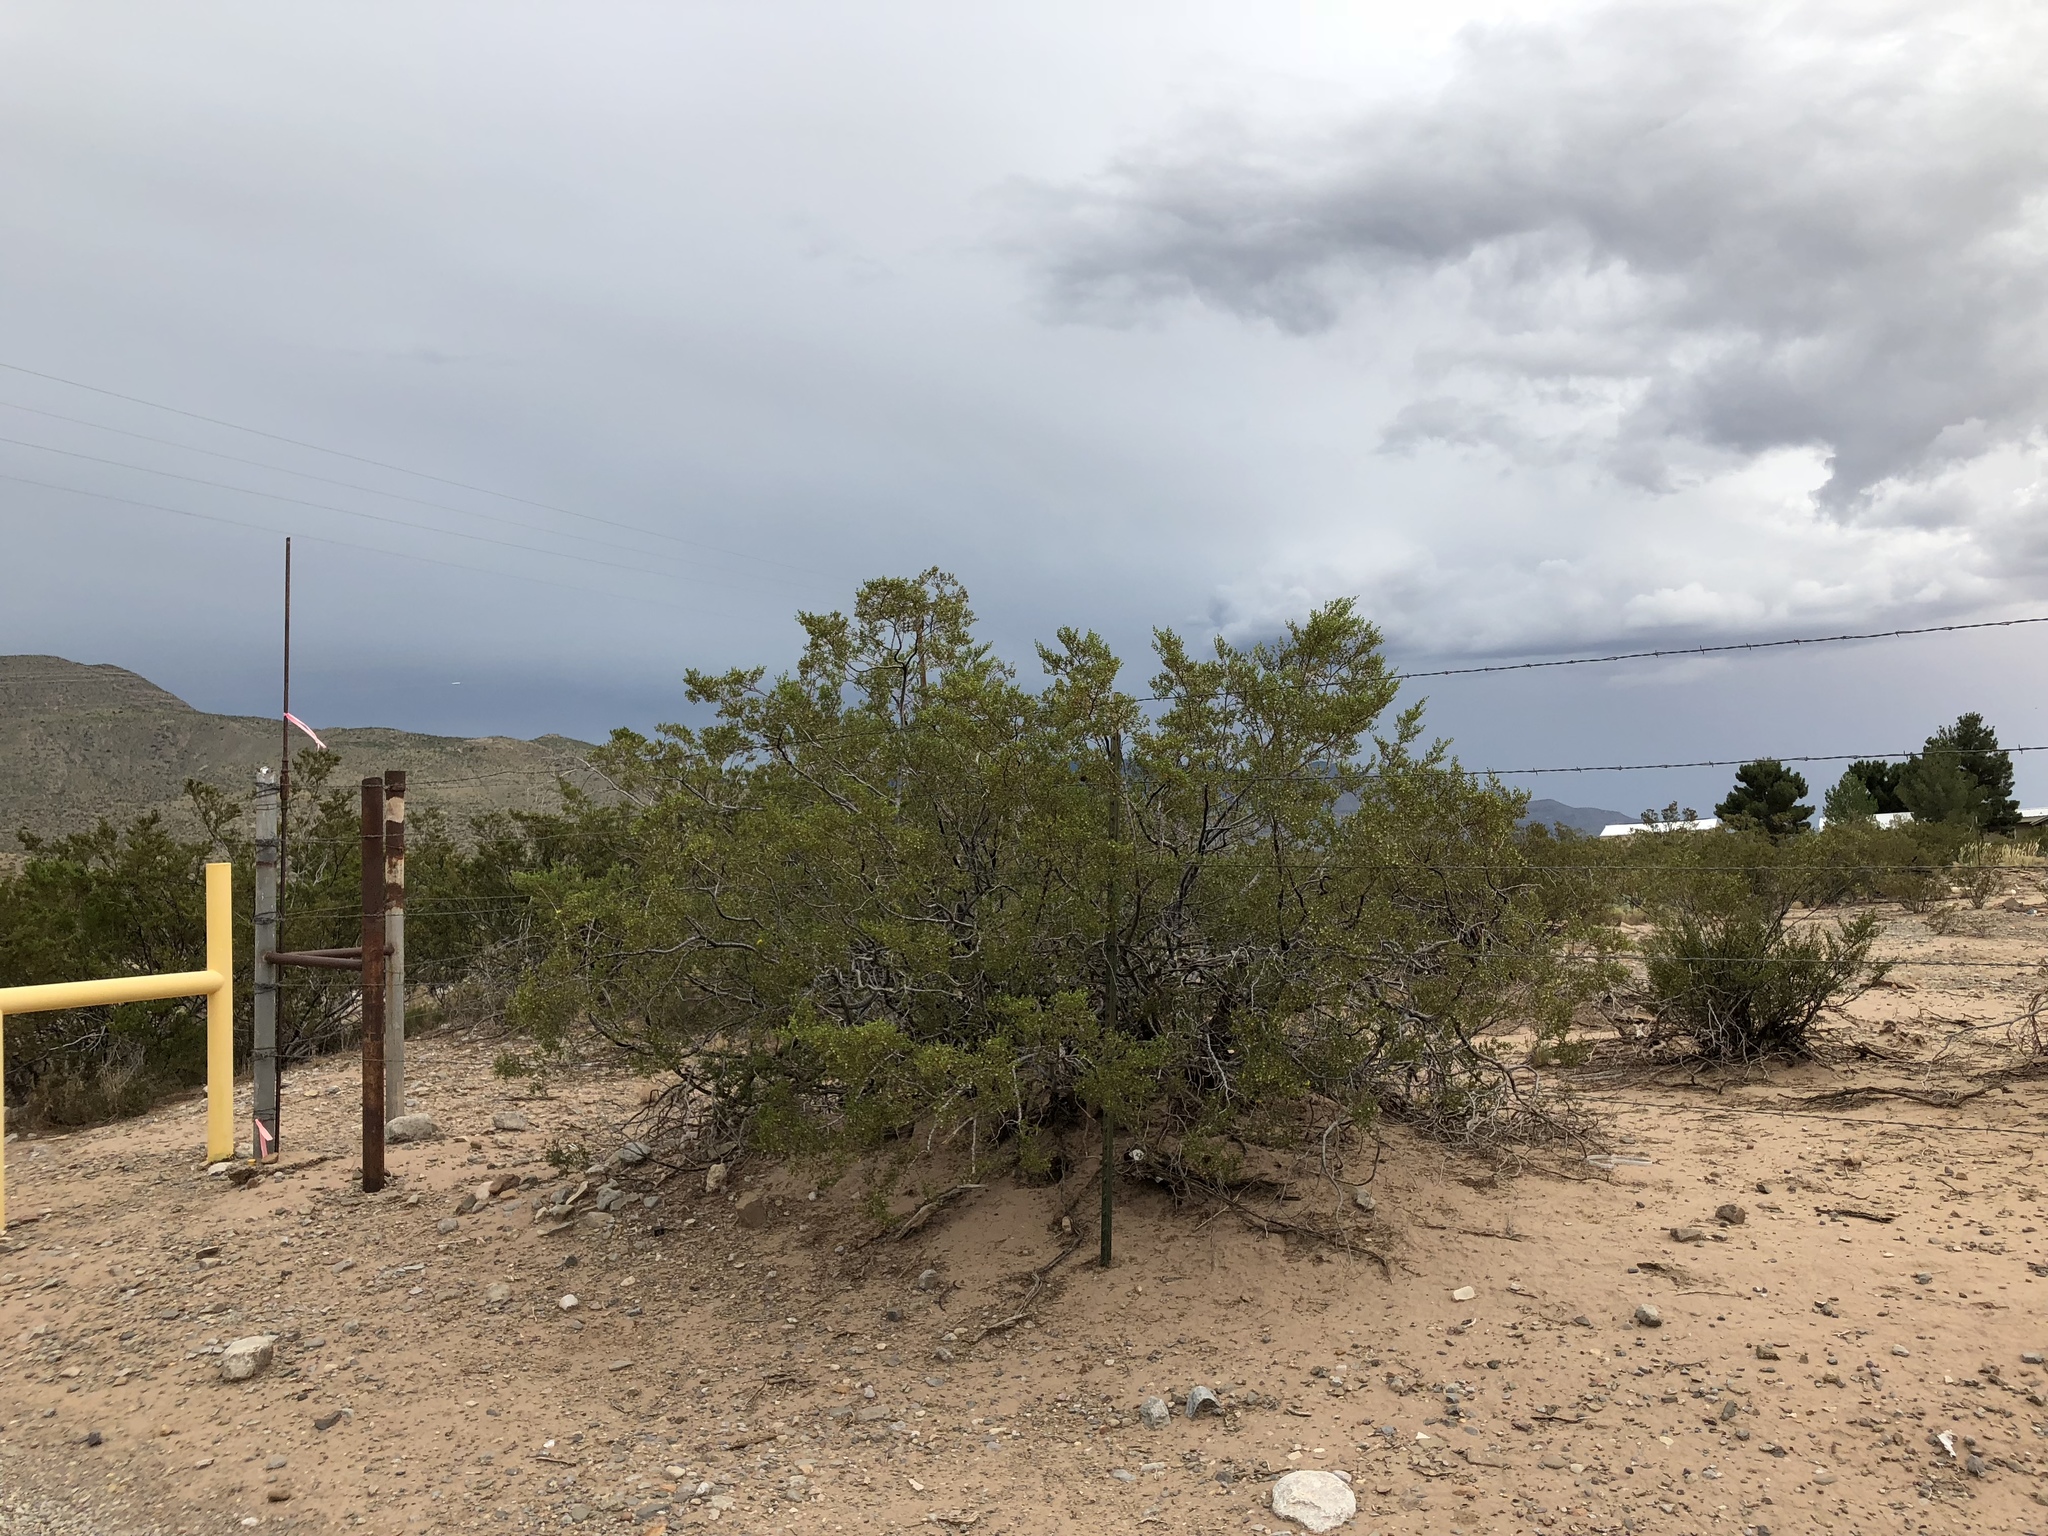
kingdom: Plantae
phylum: Tracheophyta
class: Magnoliopsida
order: Zygophyllales
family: Zygophyllaceae
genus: Larrea
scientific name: Larrea tridentata
